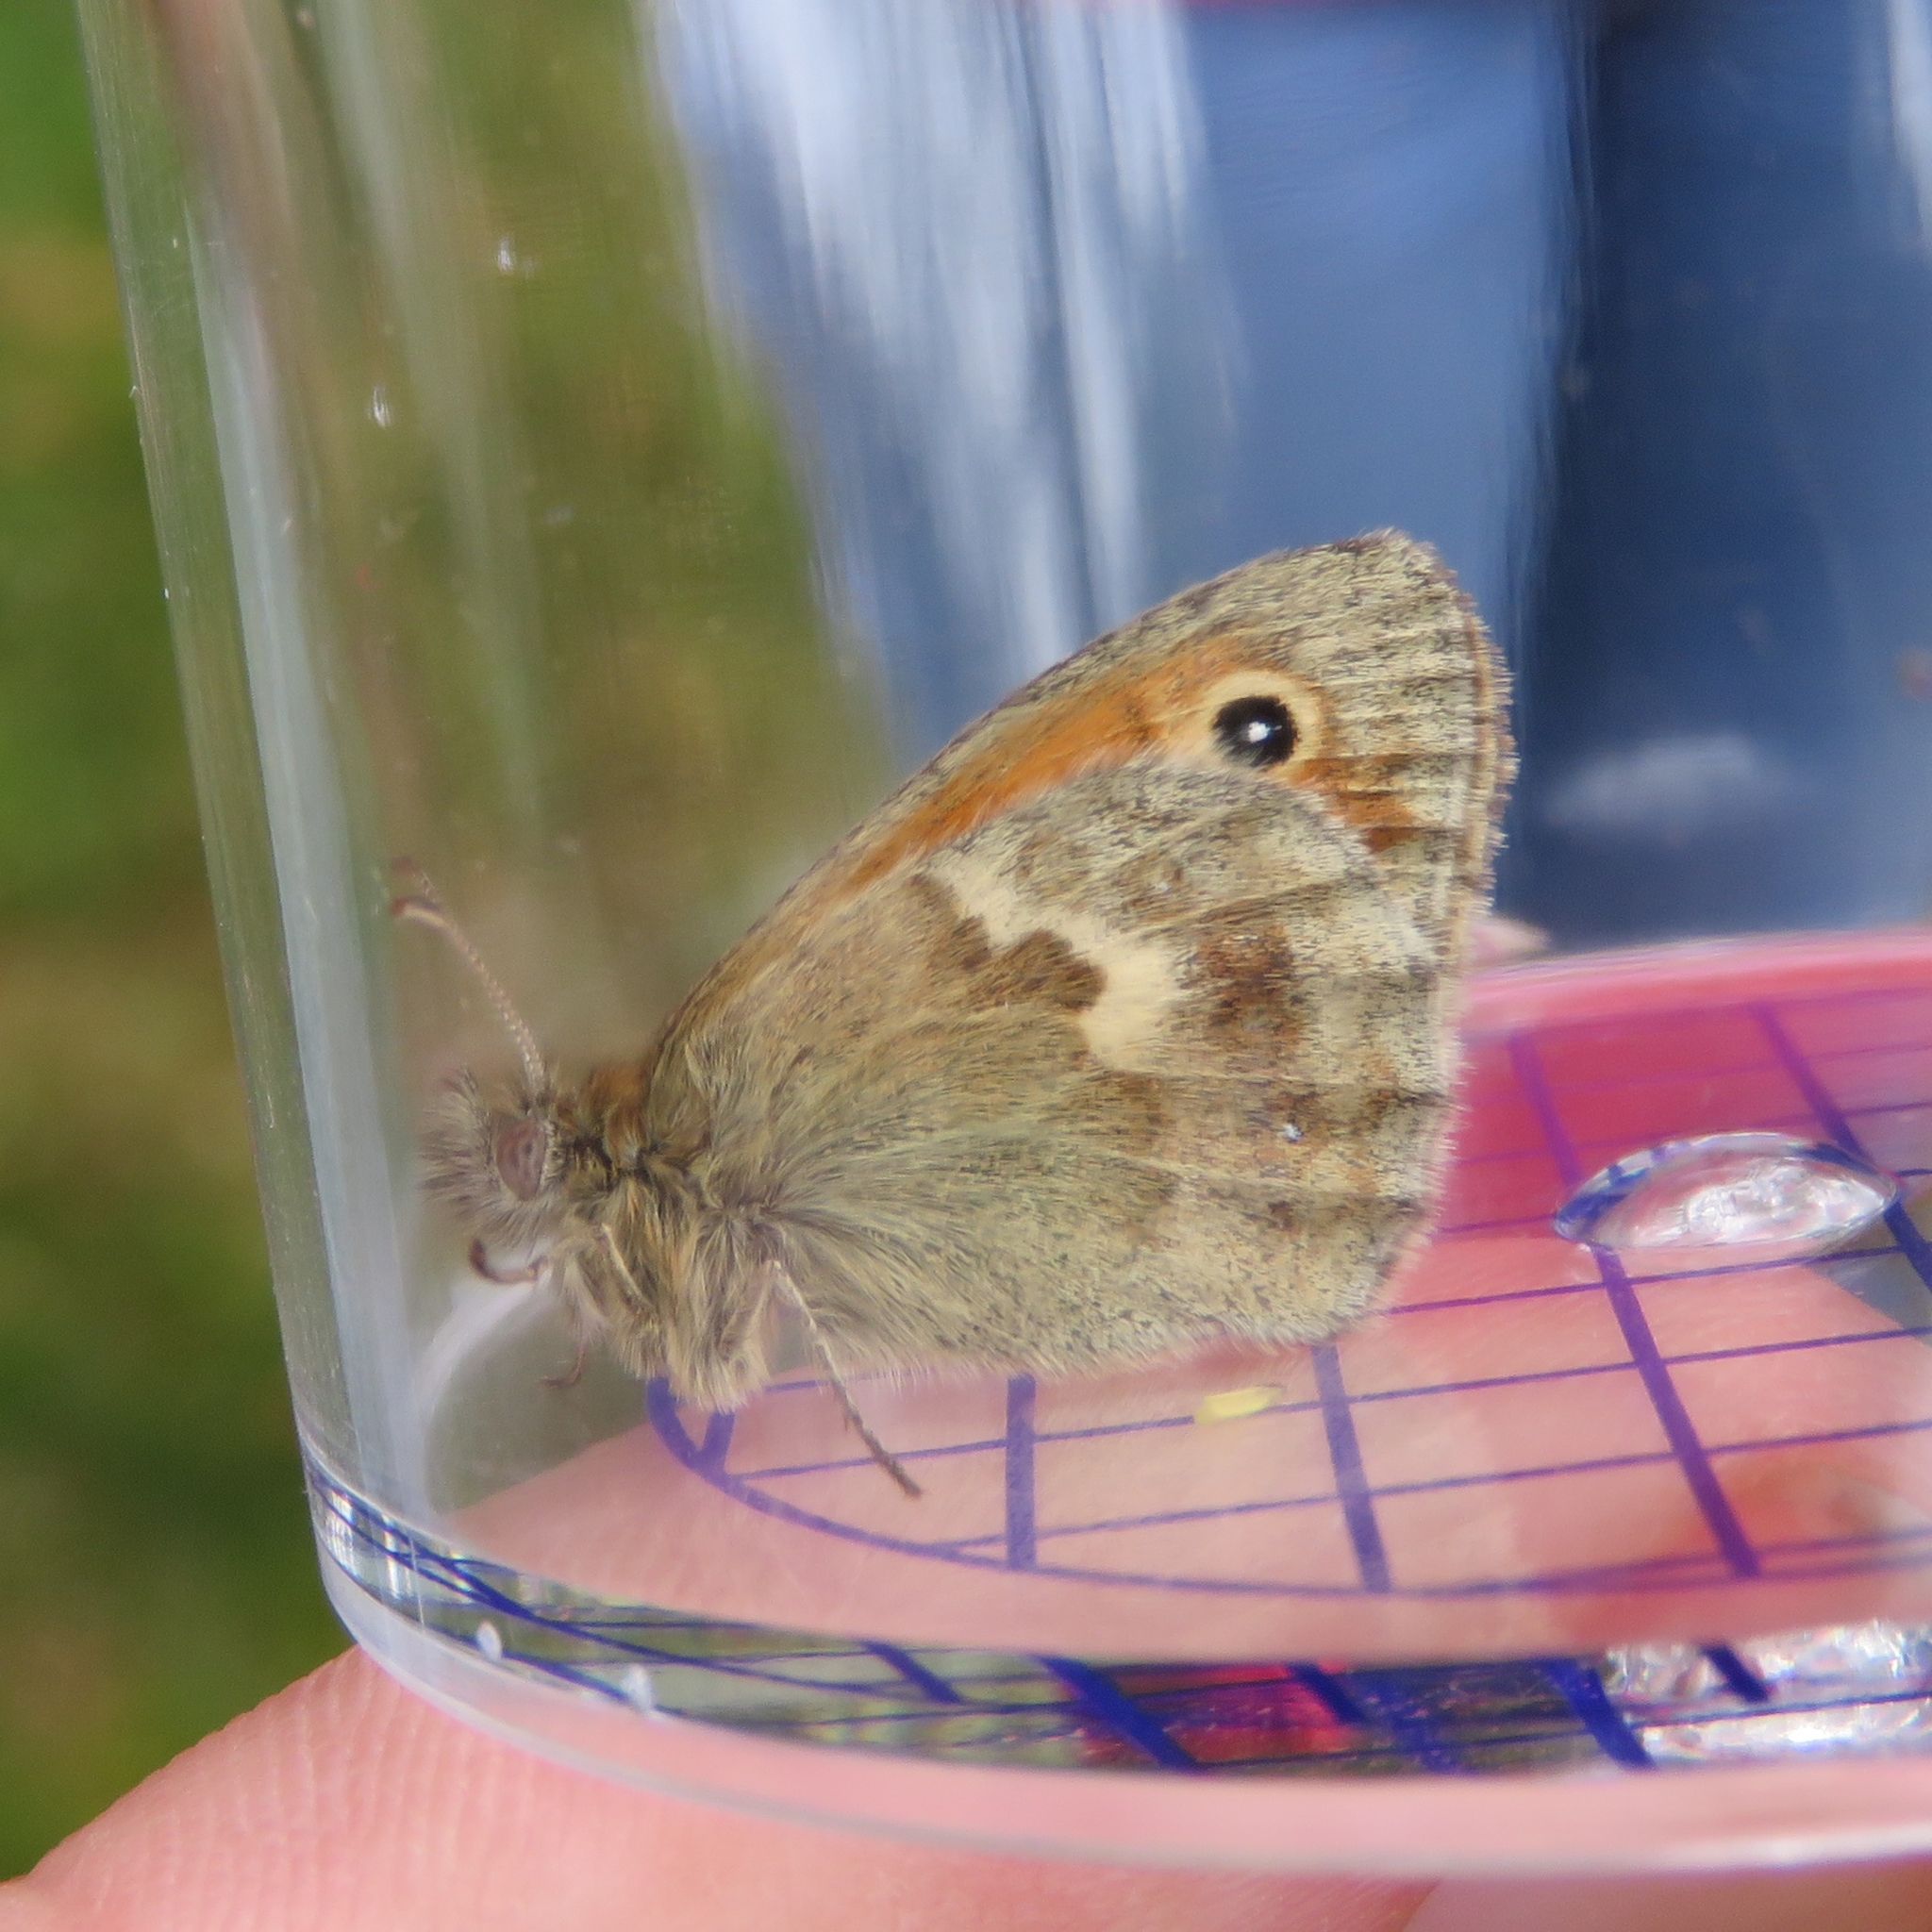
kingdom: Animalia
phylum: Arthropoda
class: Insecta
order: Lepidoptera
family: Nymphalidae
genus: Coenonympha
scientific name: Coenonympha pamphilus
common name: Small heath
